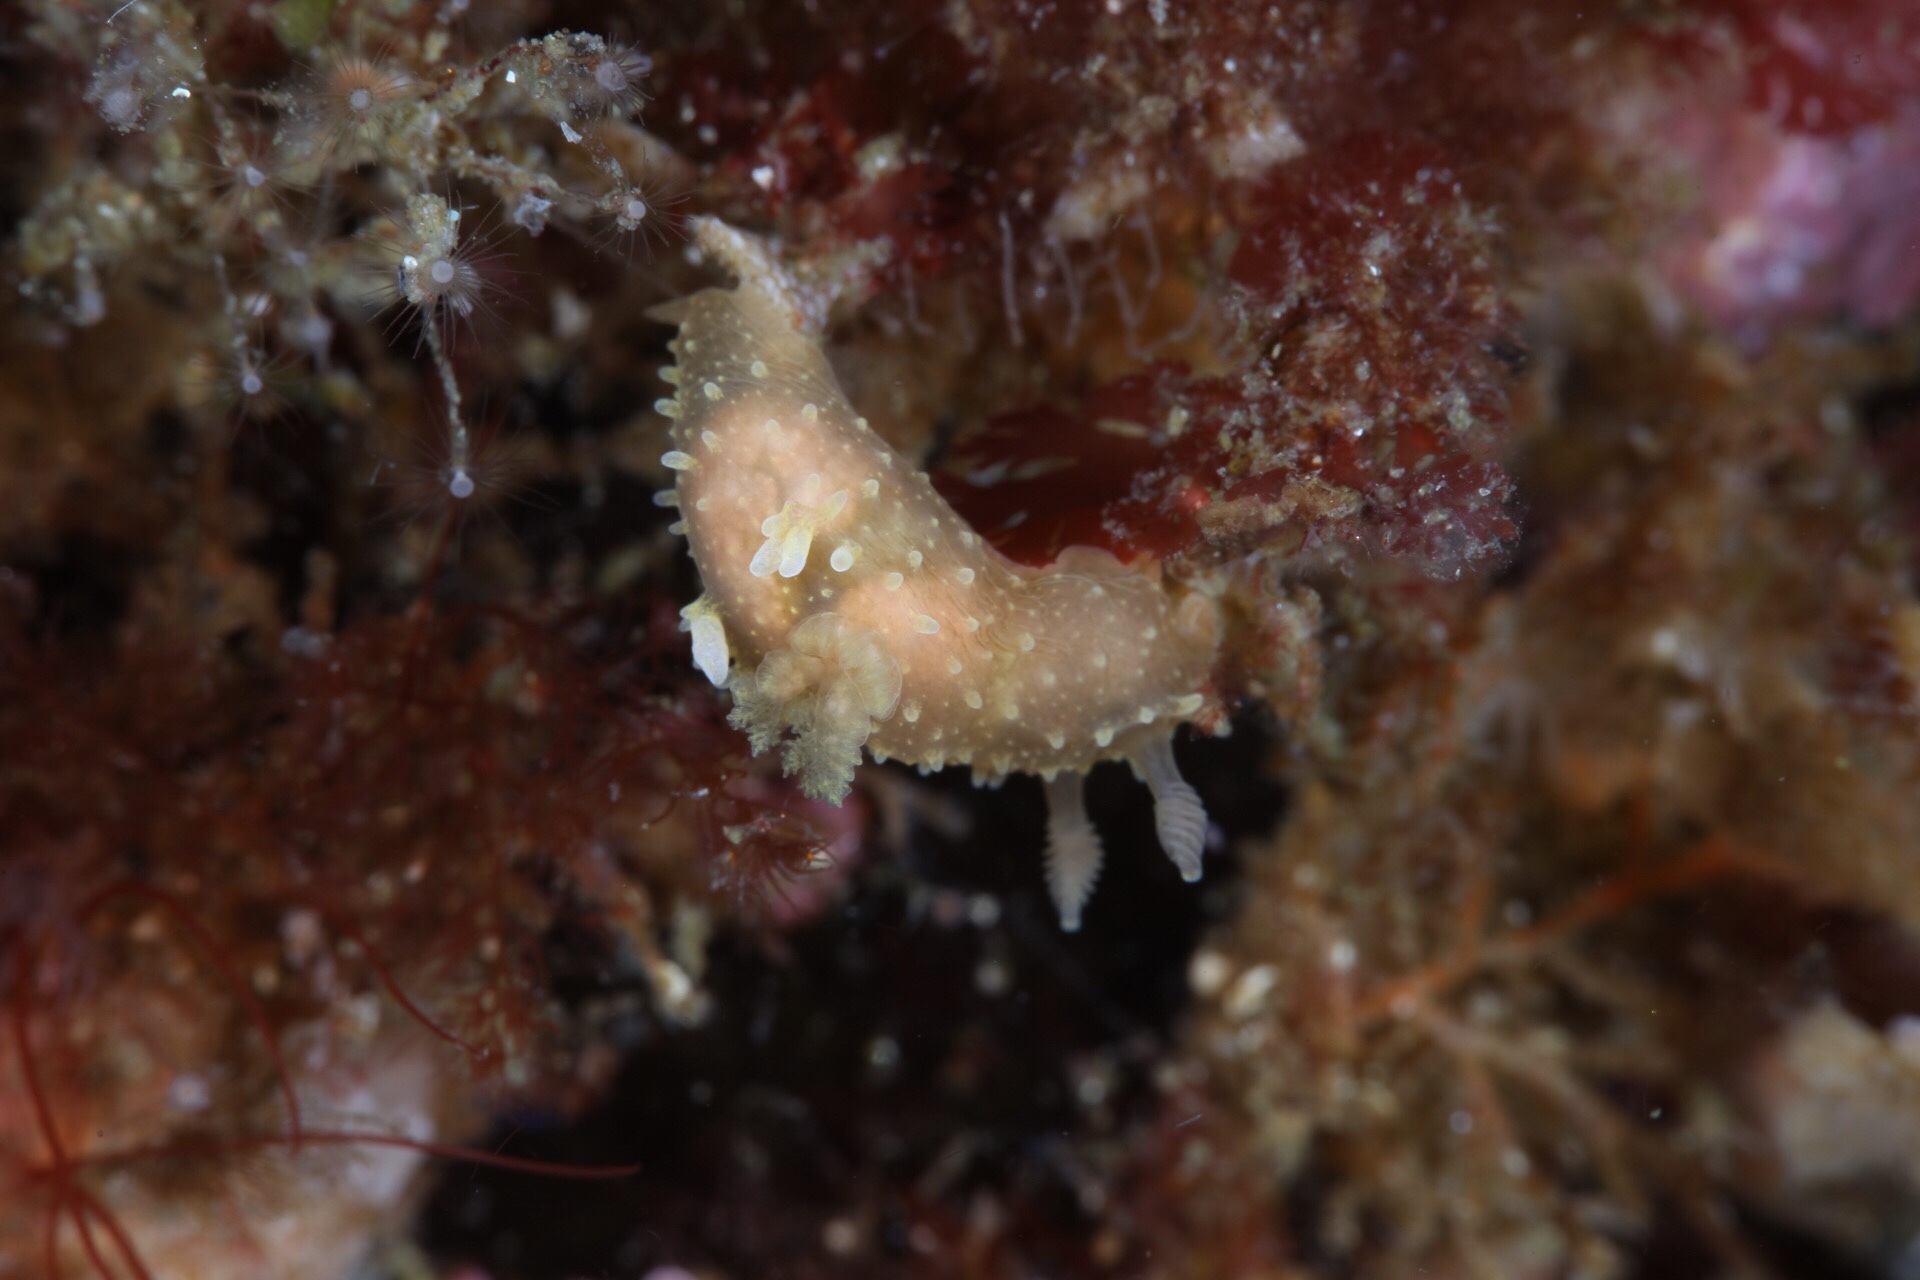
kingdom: Animalia
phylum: Mollusca
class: Gastropoda
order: Nudibranchia
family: Polyceridae
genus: Palio
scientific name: Palio dubia
